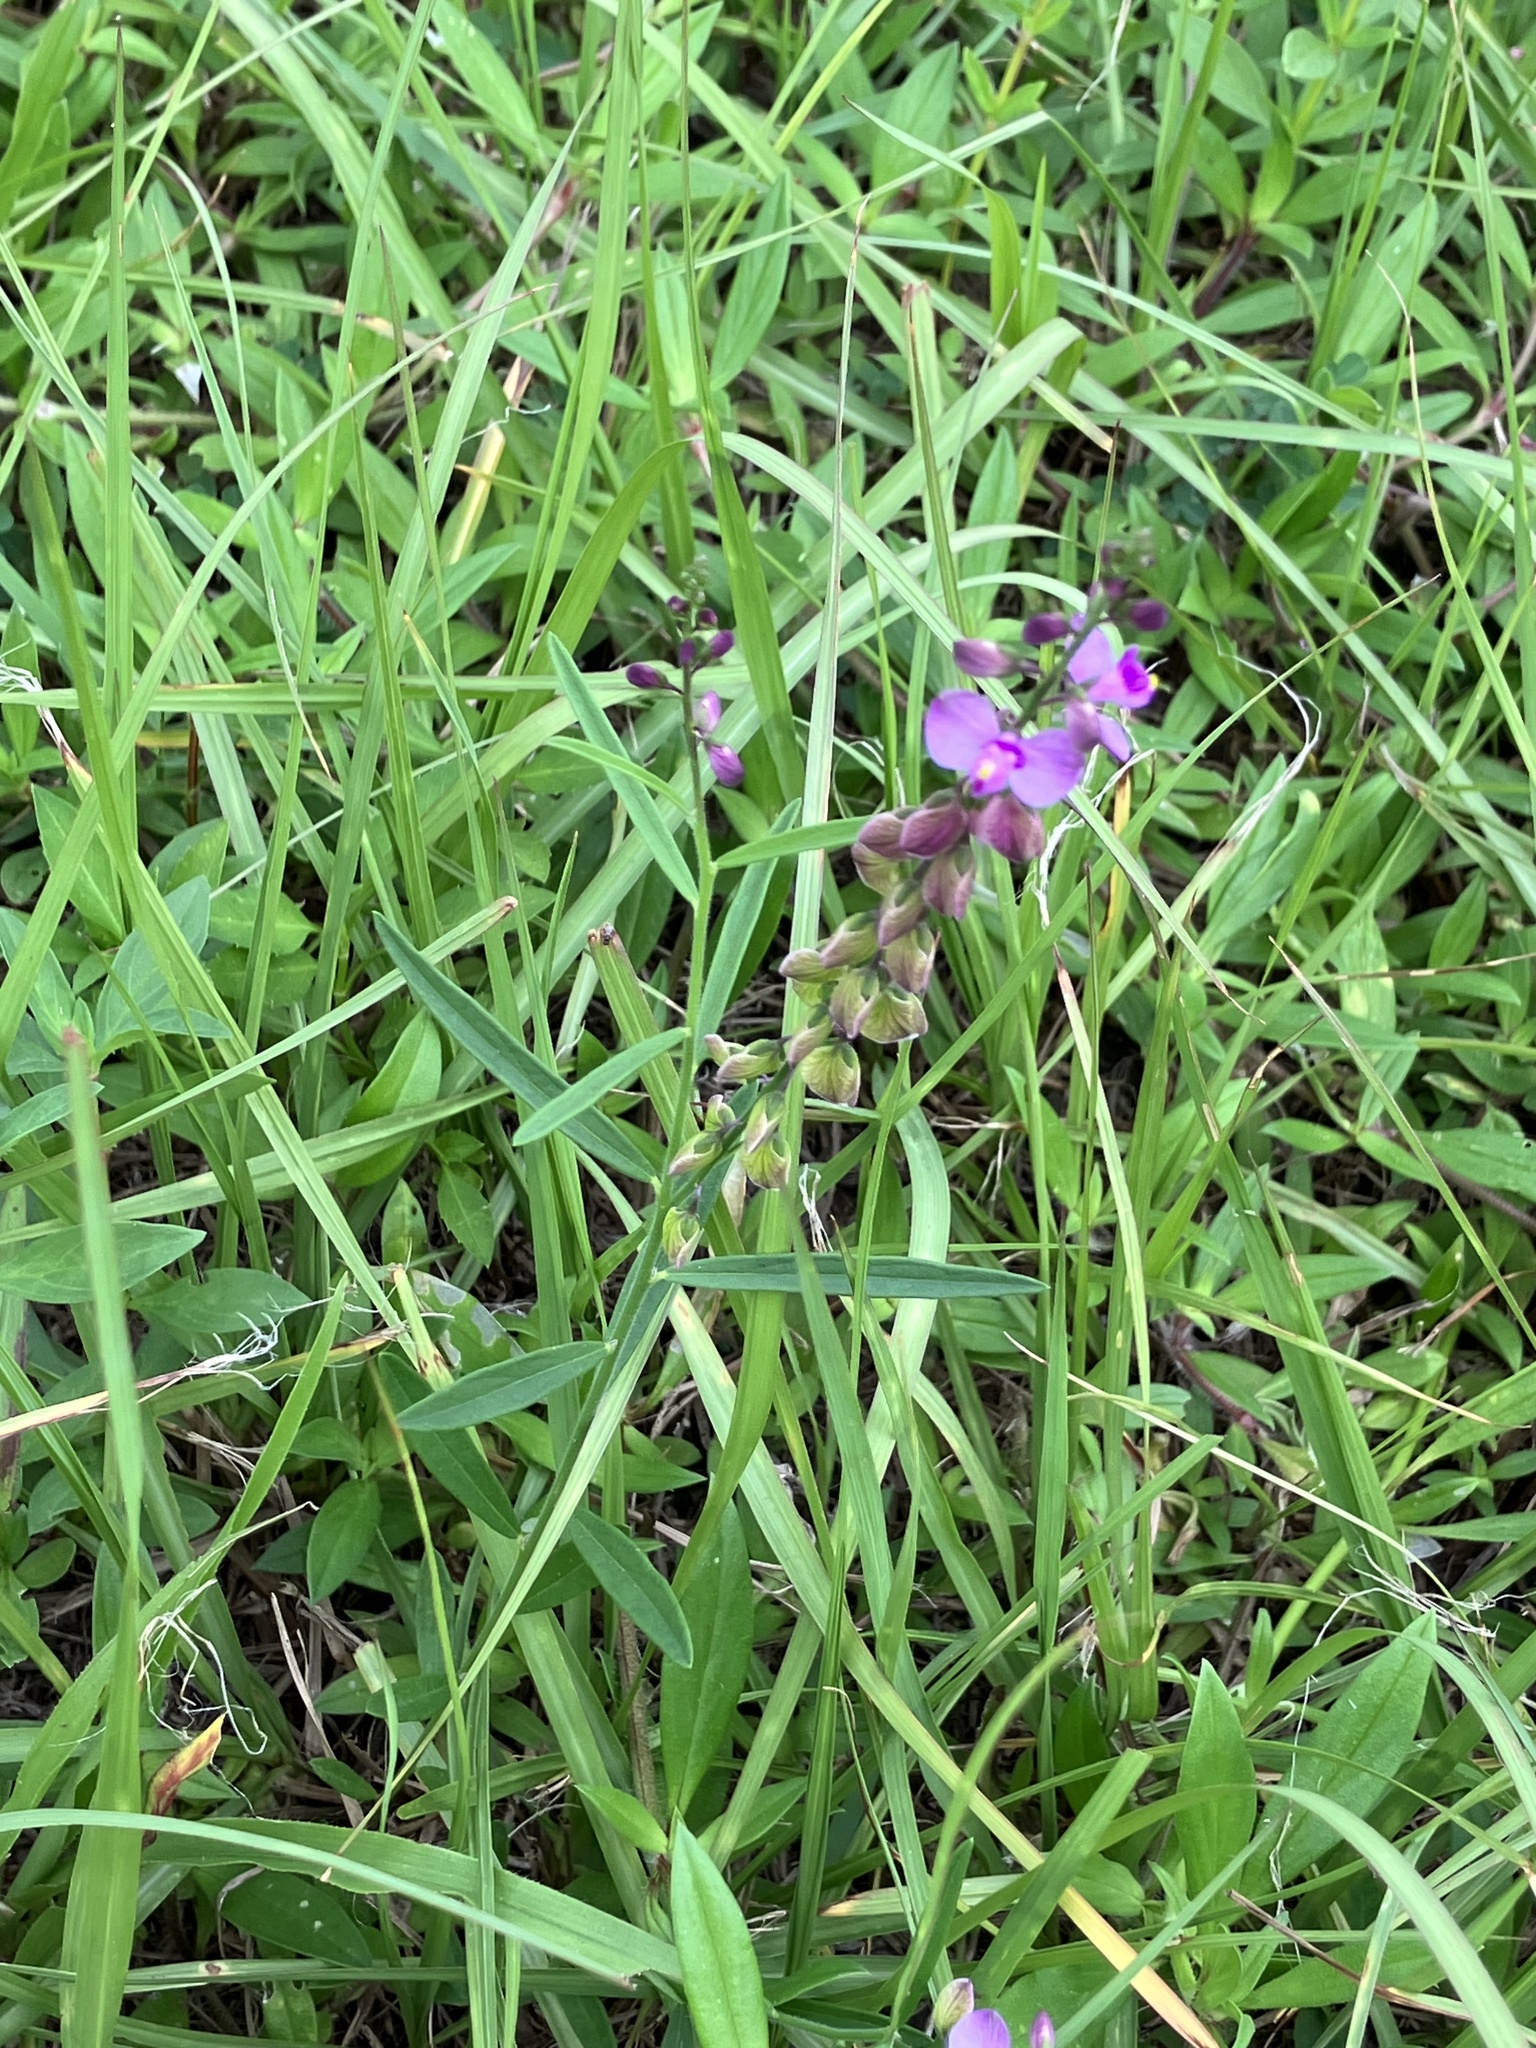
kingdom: Plantae
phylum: Tracheophyta
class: Magnoliopsida
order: Fabales
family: Polygalaceae
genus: Asemeia
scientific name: Asemeia grandiflora
